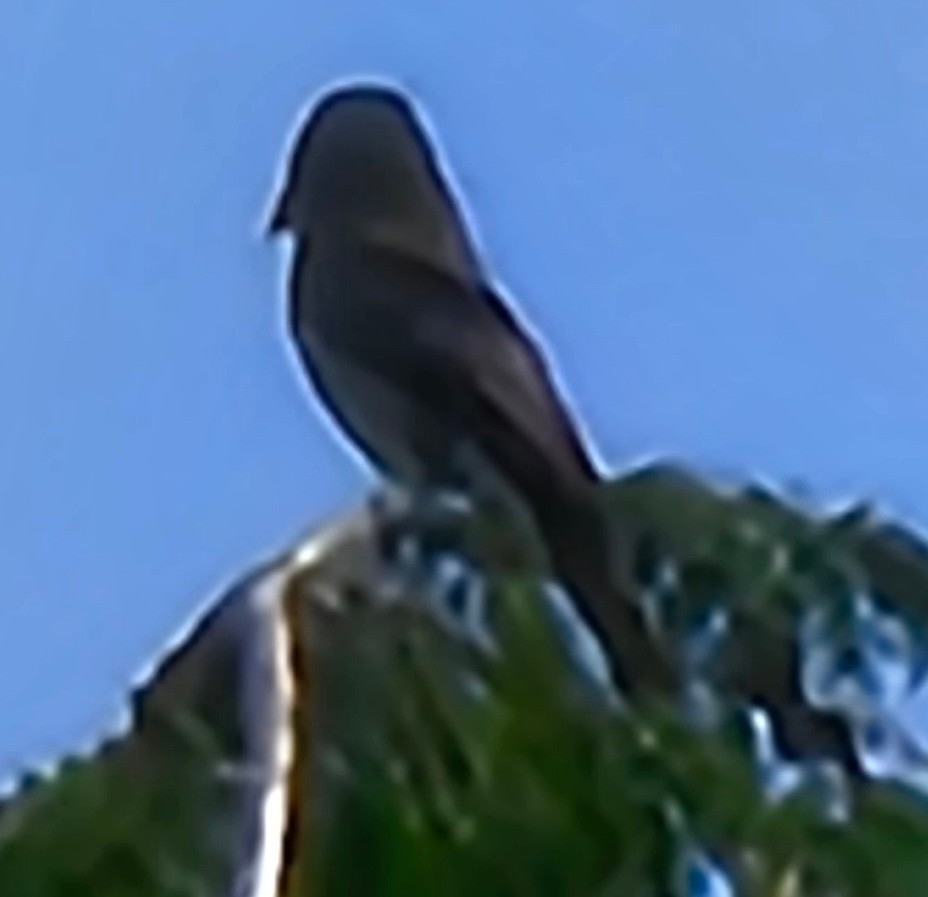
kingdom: Animalia
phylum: Chordata
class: Aves
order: Passeriformes
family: Tyrannidae
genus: Contopus
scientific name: Contopus virens
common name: Eastern wood-pewee
